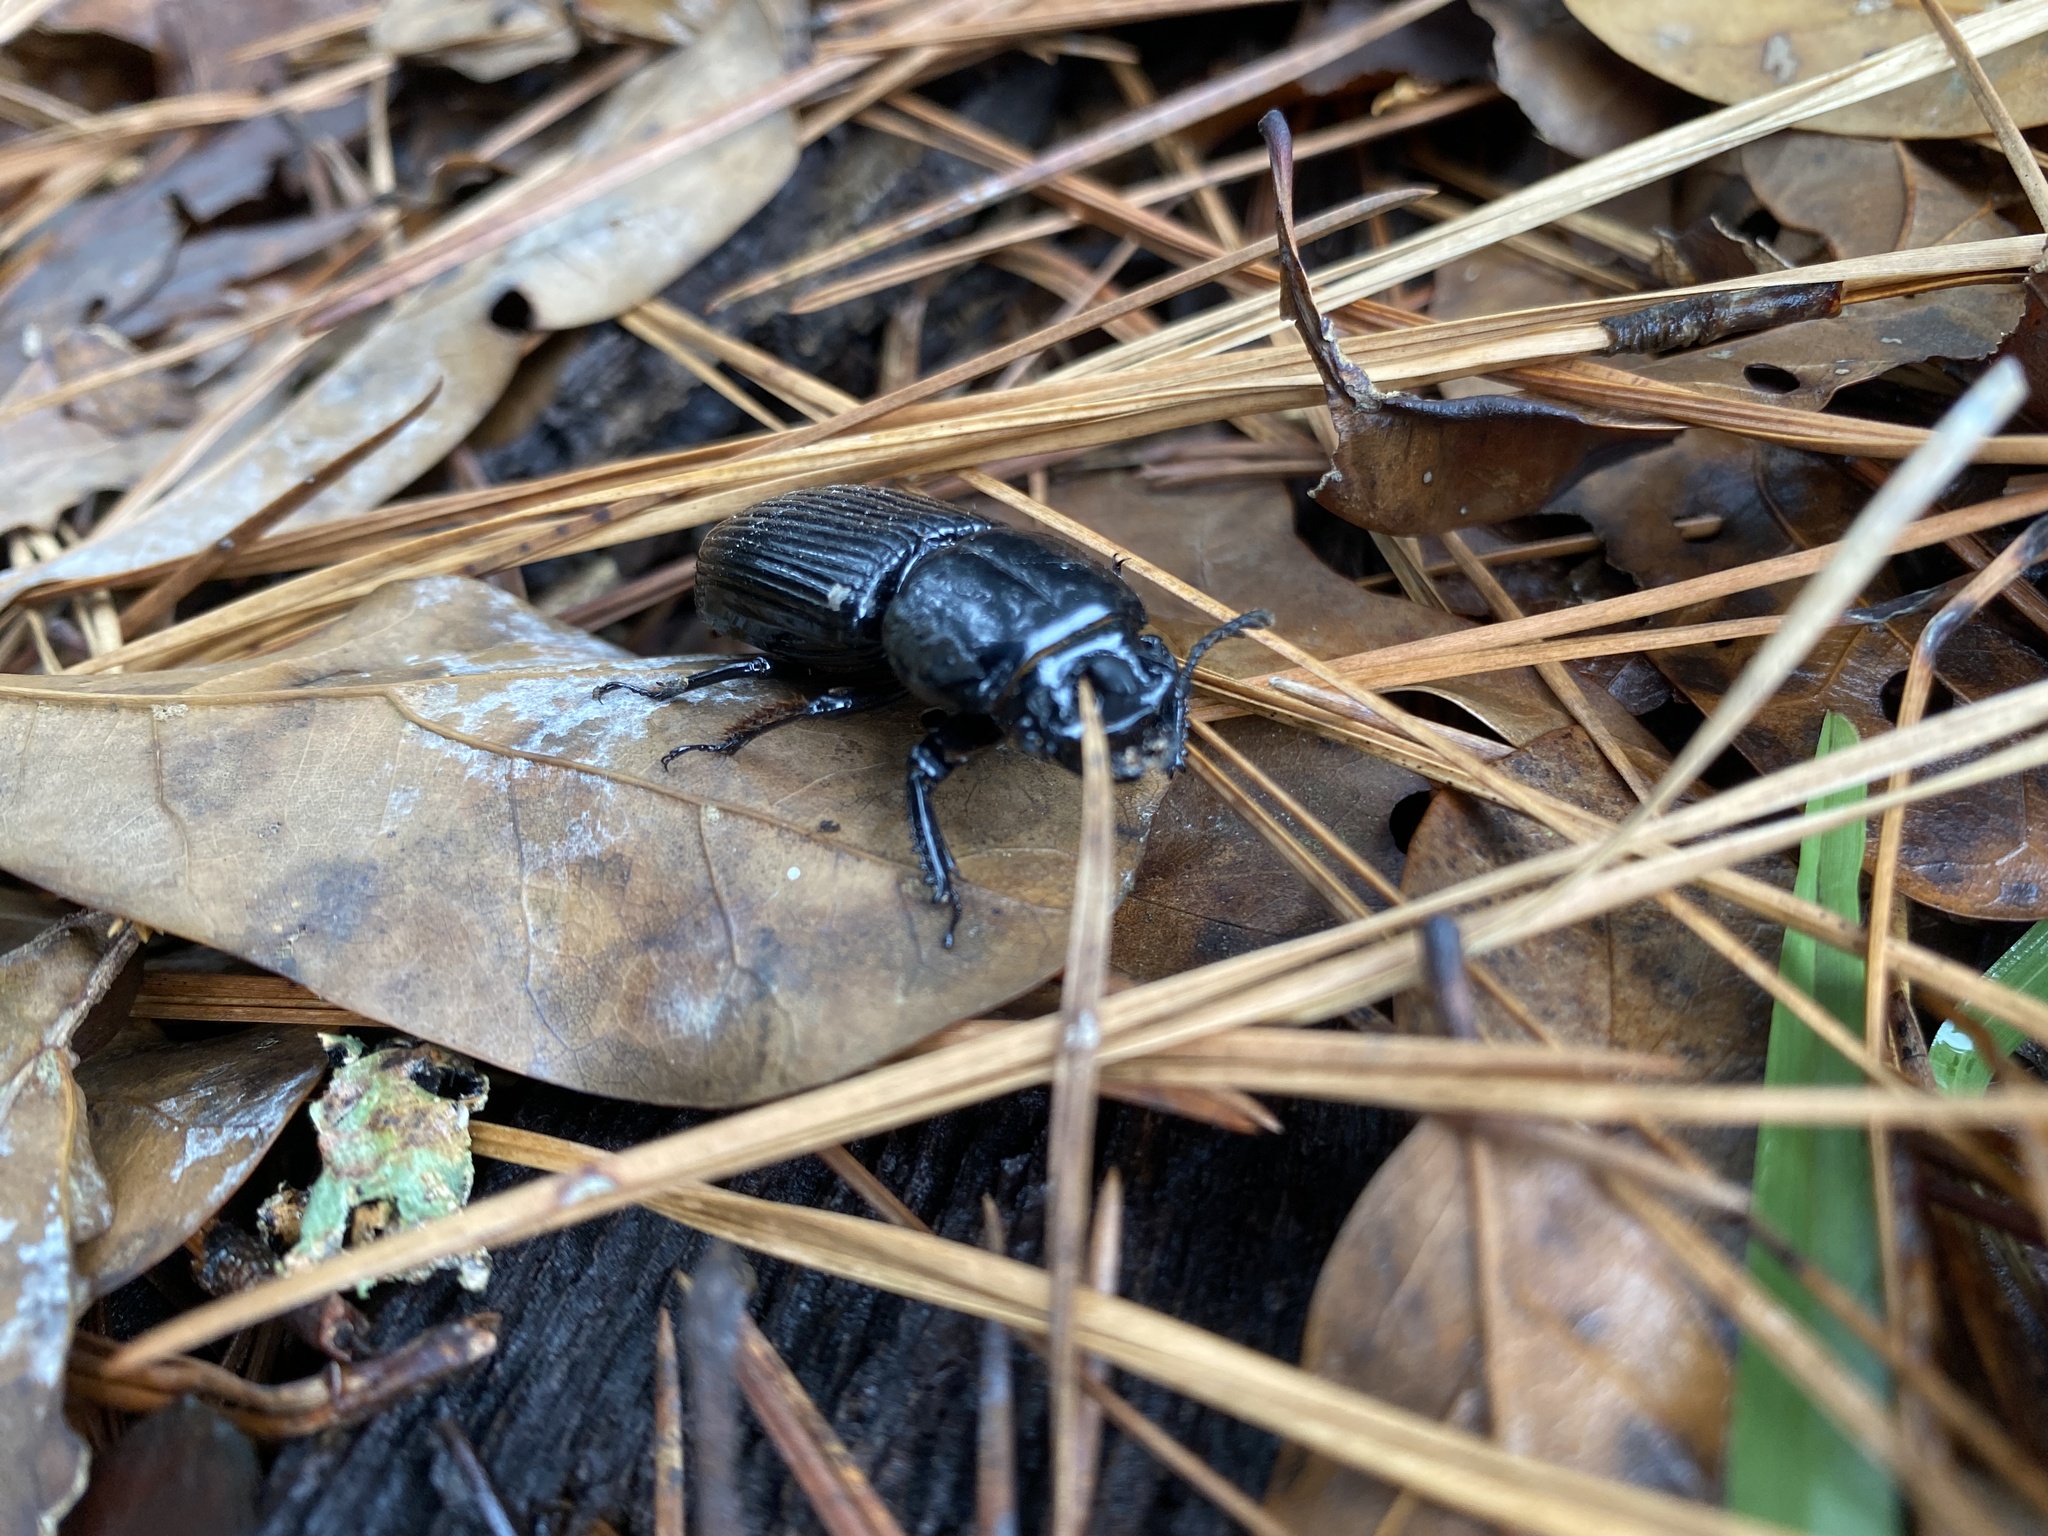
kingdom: Animalia
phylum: Arthropoda
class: Insecta
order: Coleoptera
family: Passalidae
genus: Odontotaenius
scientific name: Odontotaenius disjunctus
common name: Patent leather beetle
